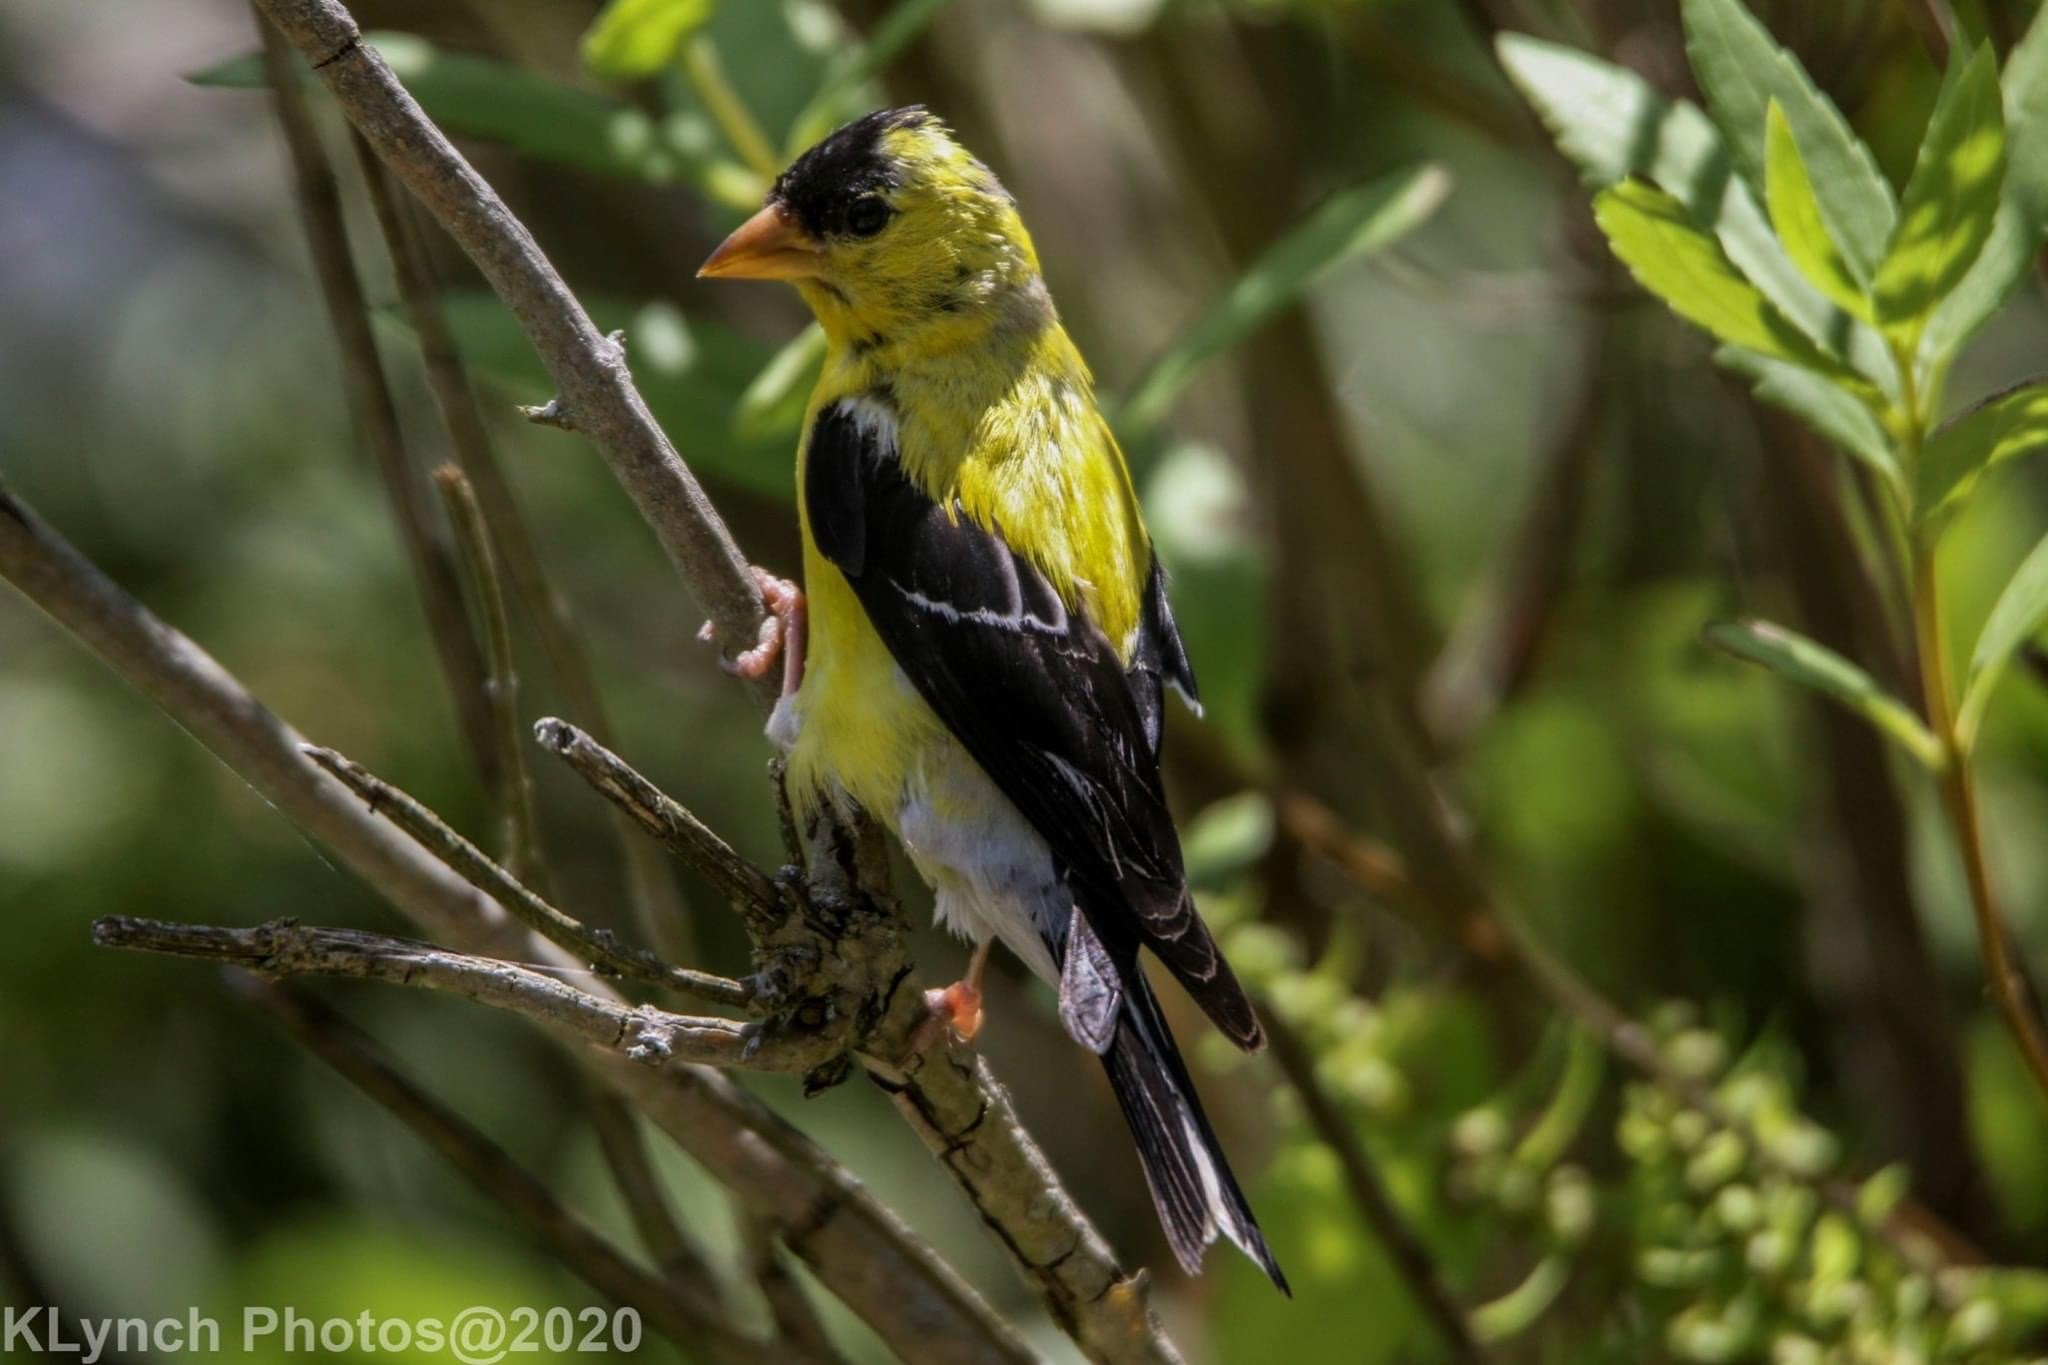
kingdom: Animalia
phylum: Chordata
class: Aves
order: Passeriformes
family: Fringillidae
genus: Spinus
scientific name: Spinus tristis
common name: American goldfinch
